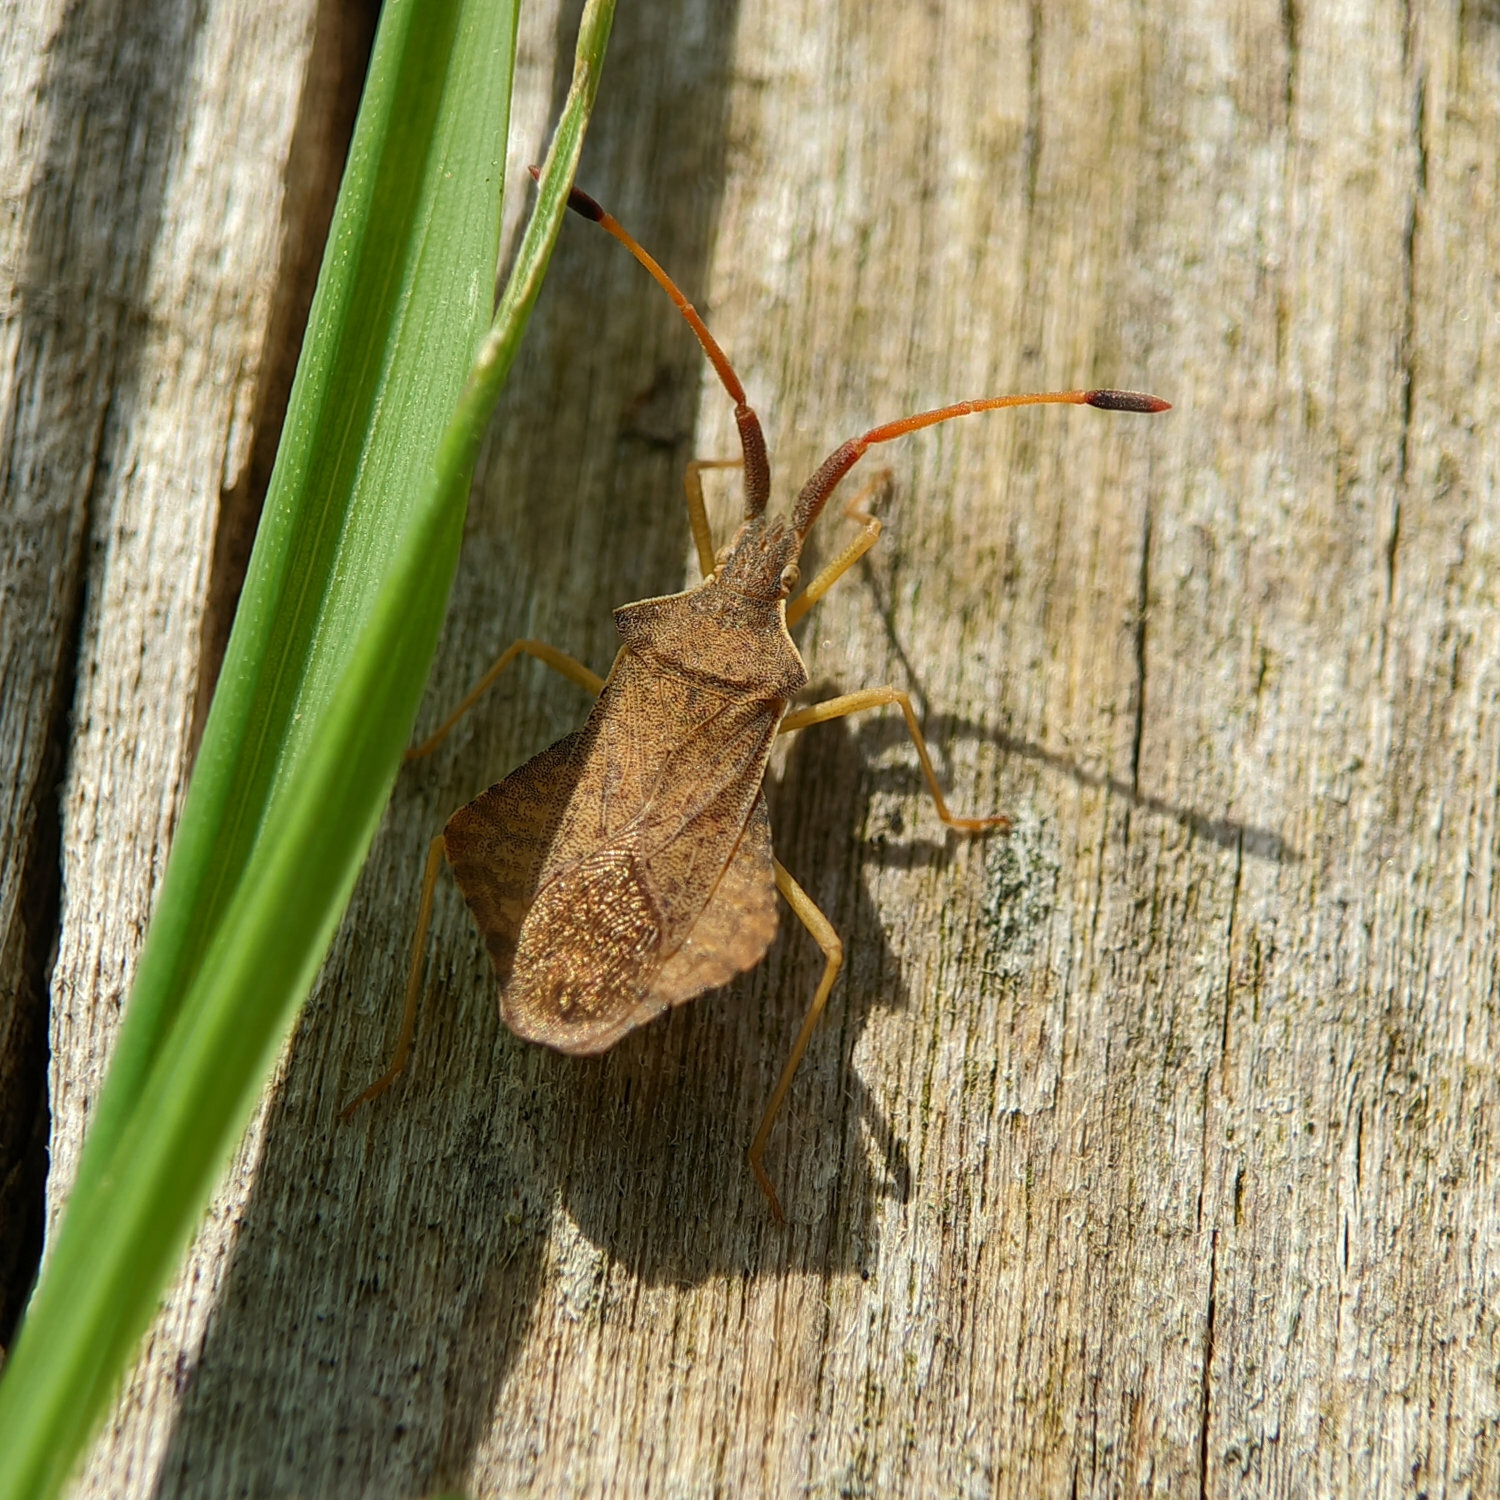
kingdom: Animalia
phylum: Arthropoda
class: Insecta
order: Hemiptera
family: Coreidae
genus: Syromastus
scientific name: Syromastus rhombeus
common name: Rhombic leatherbug
